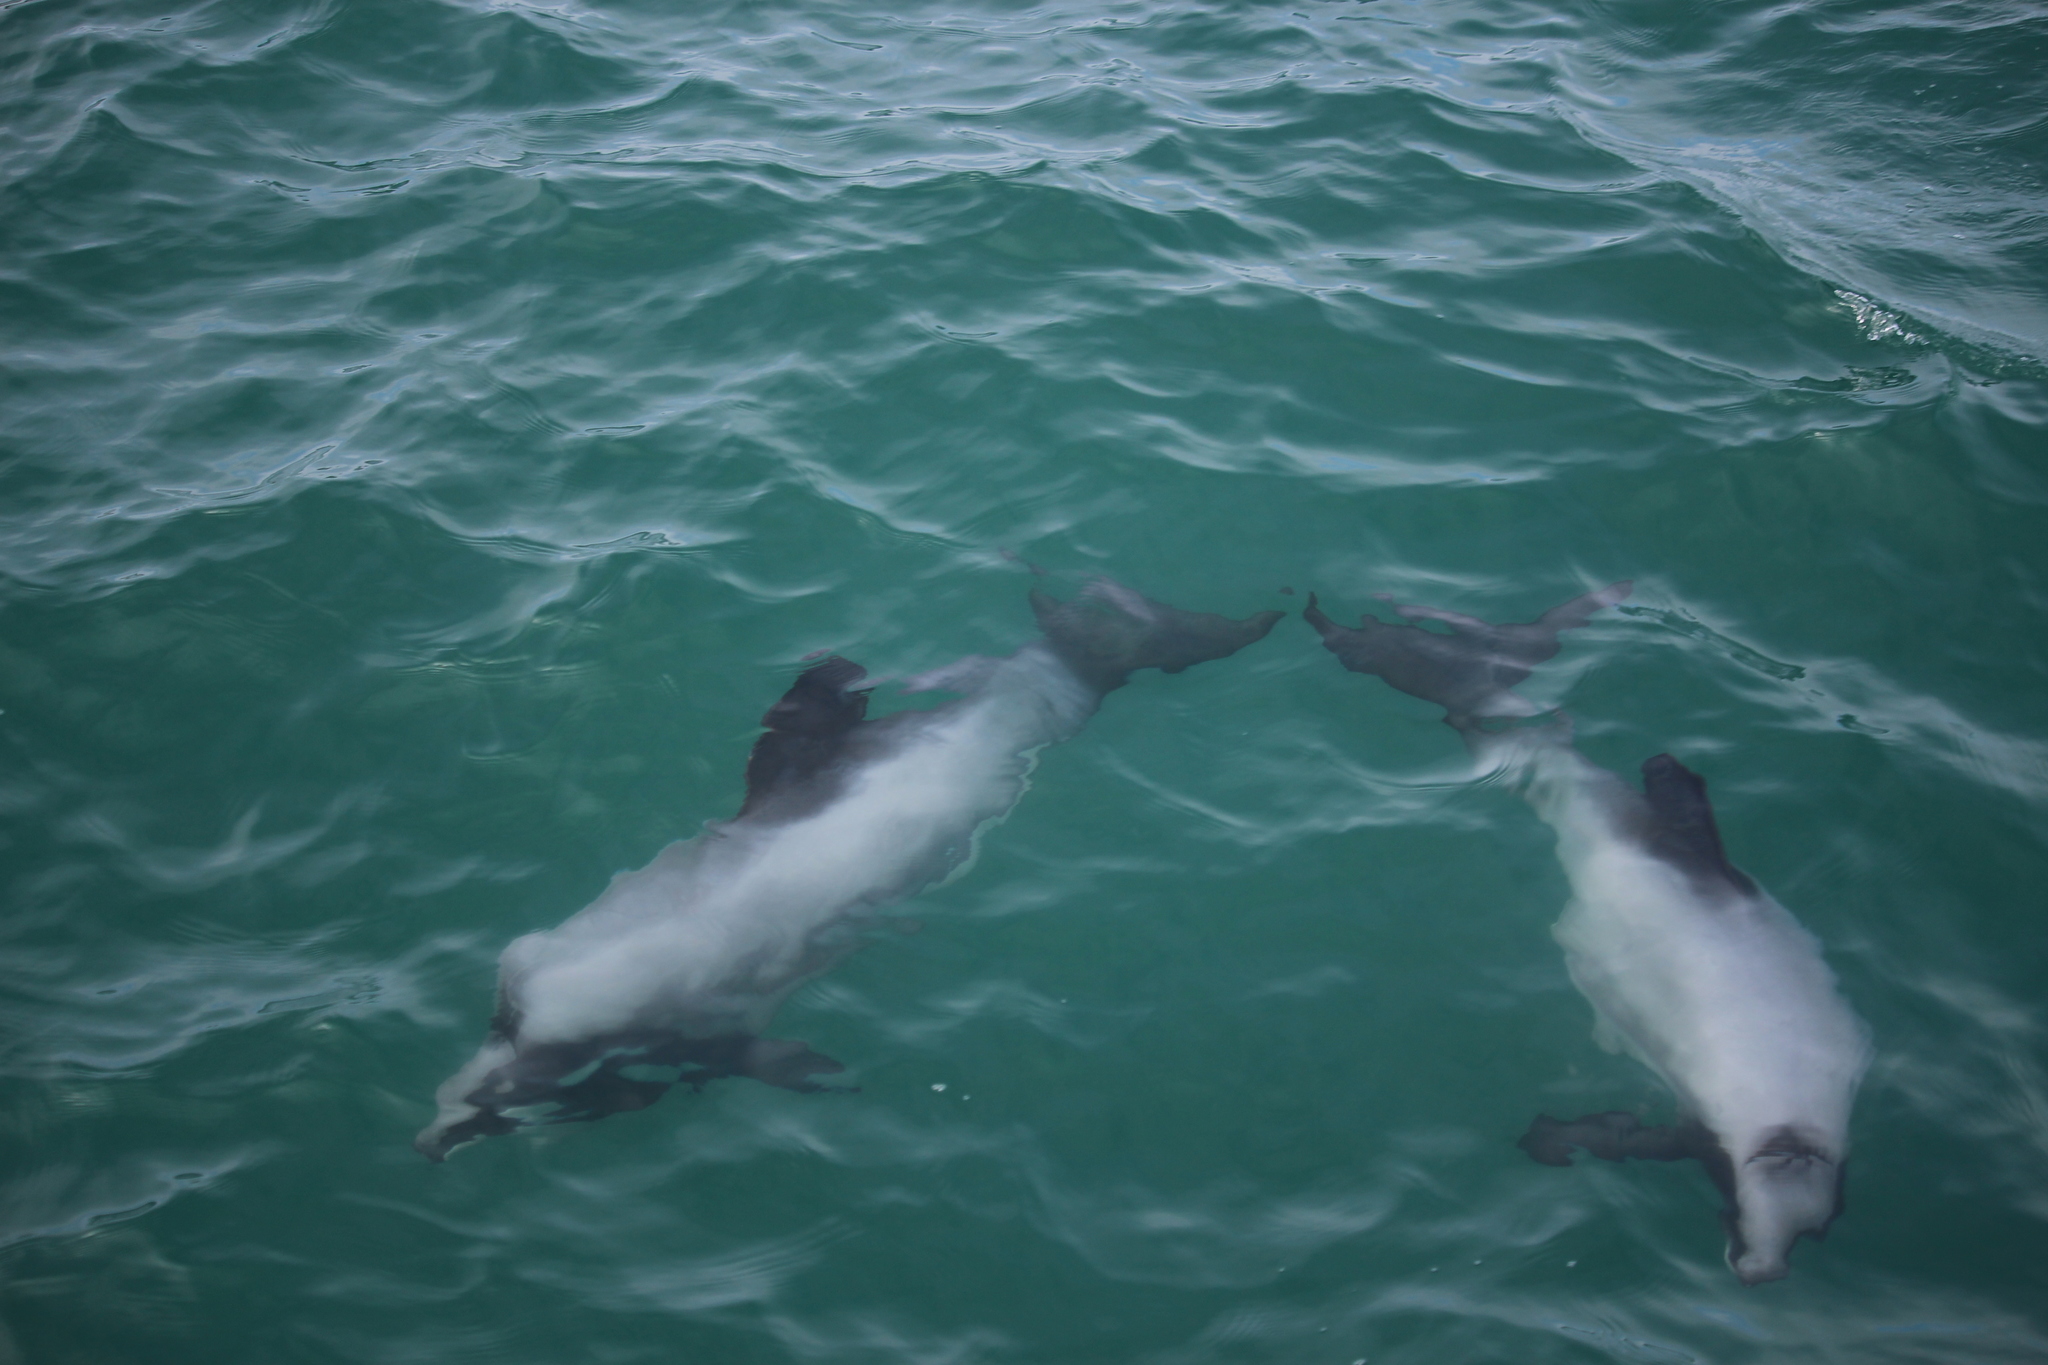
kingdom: Animalia
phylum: Chordata
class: Mammalia
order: Cetacea
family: Delphinidae
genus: Cephalorhynchus
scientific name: Cephalorhynchus hectori
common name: Hector's dolphin
